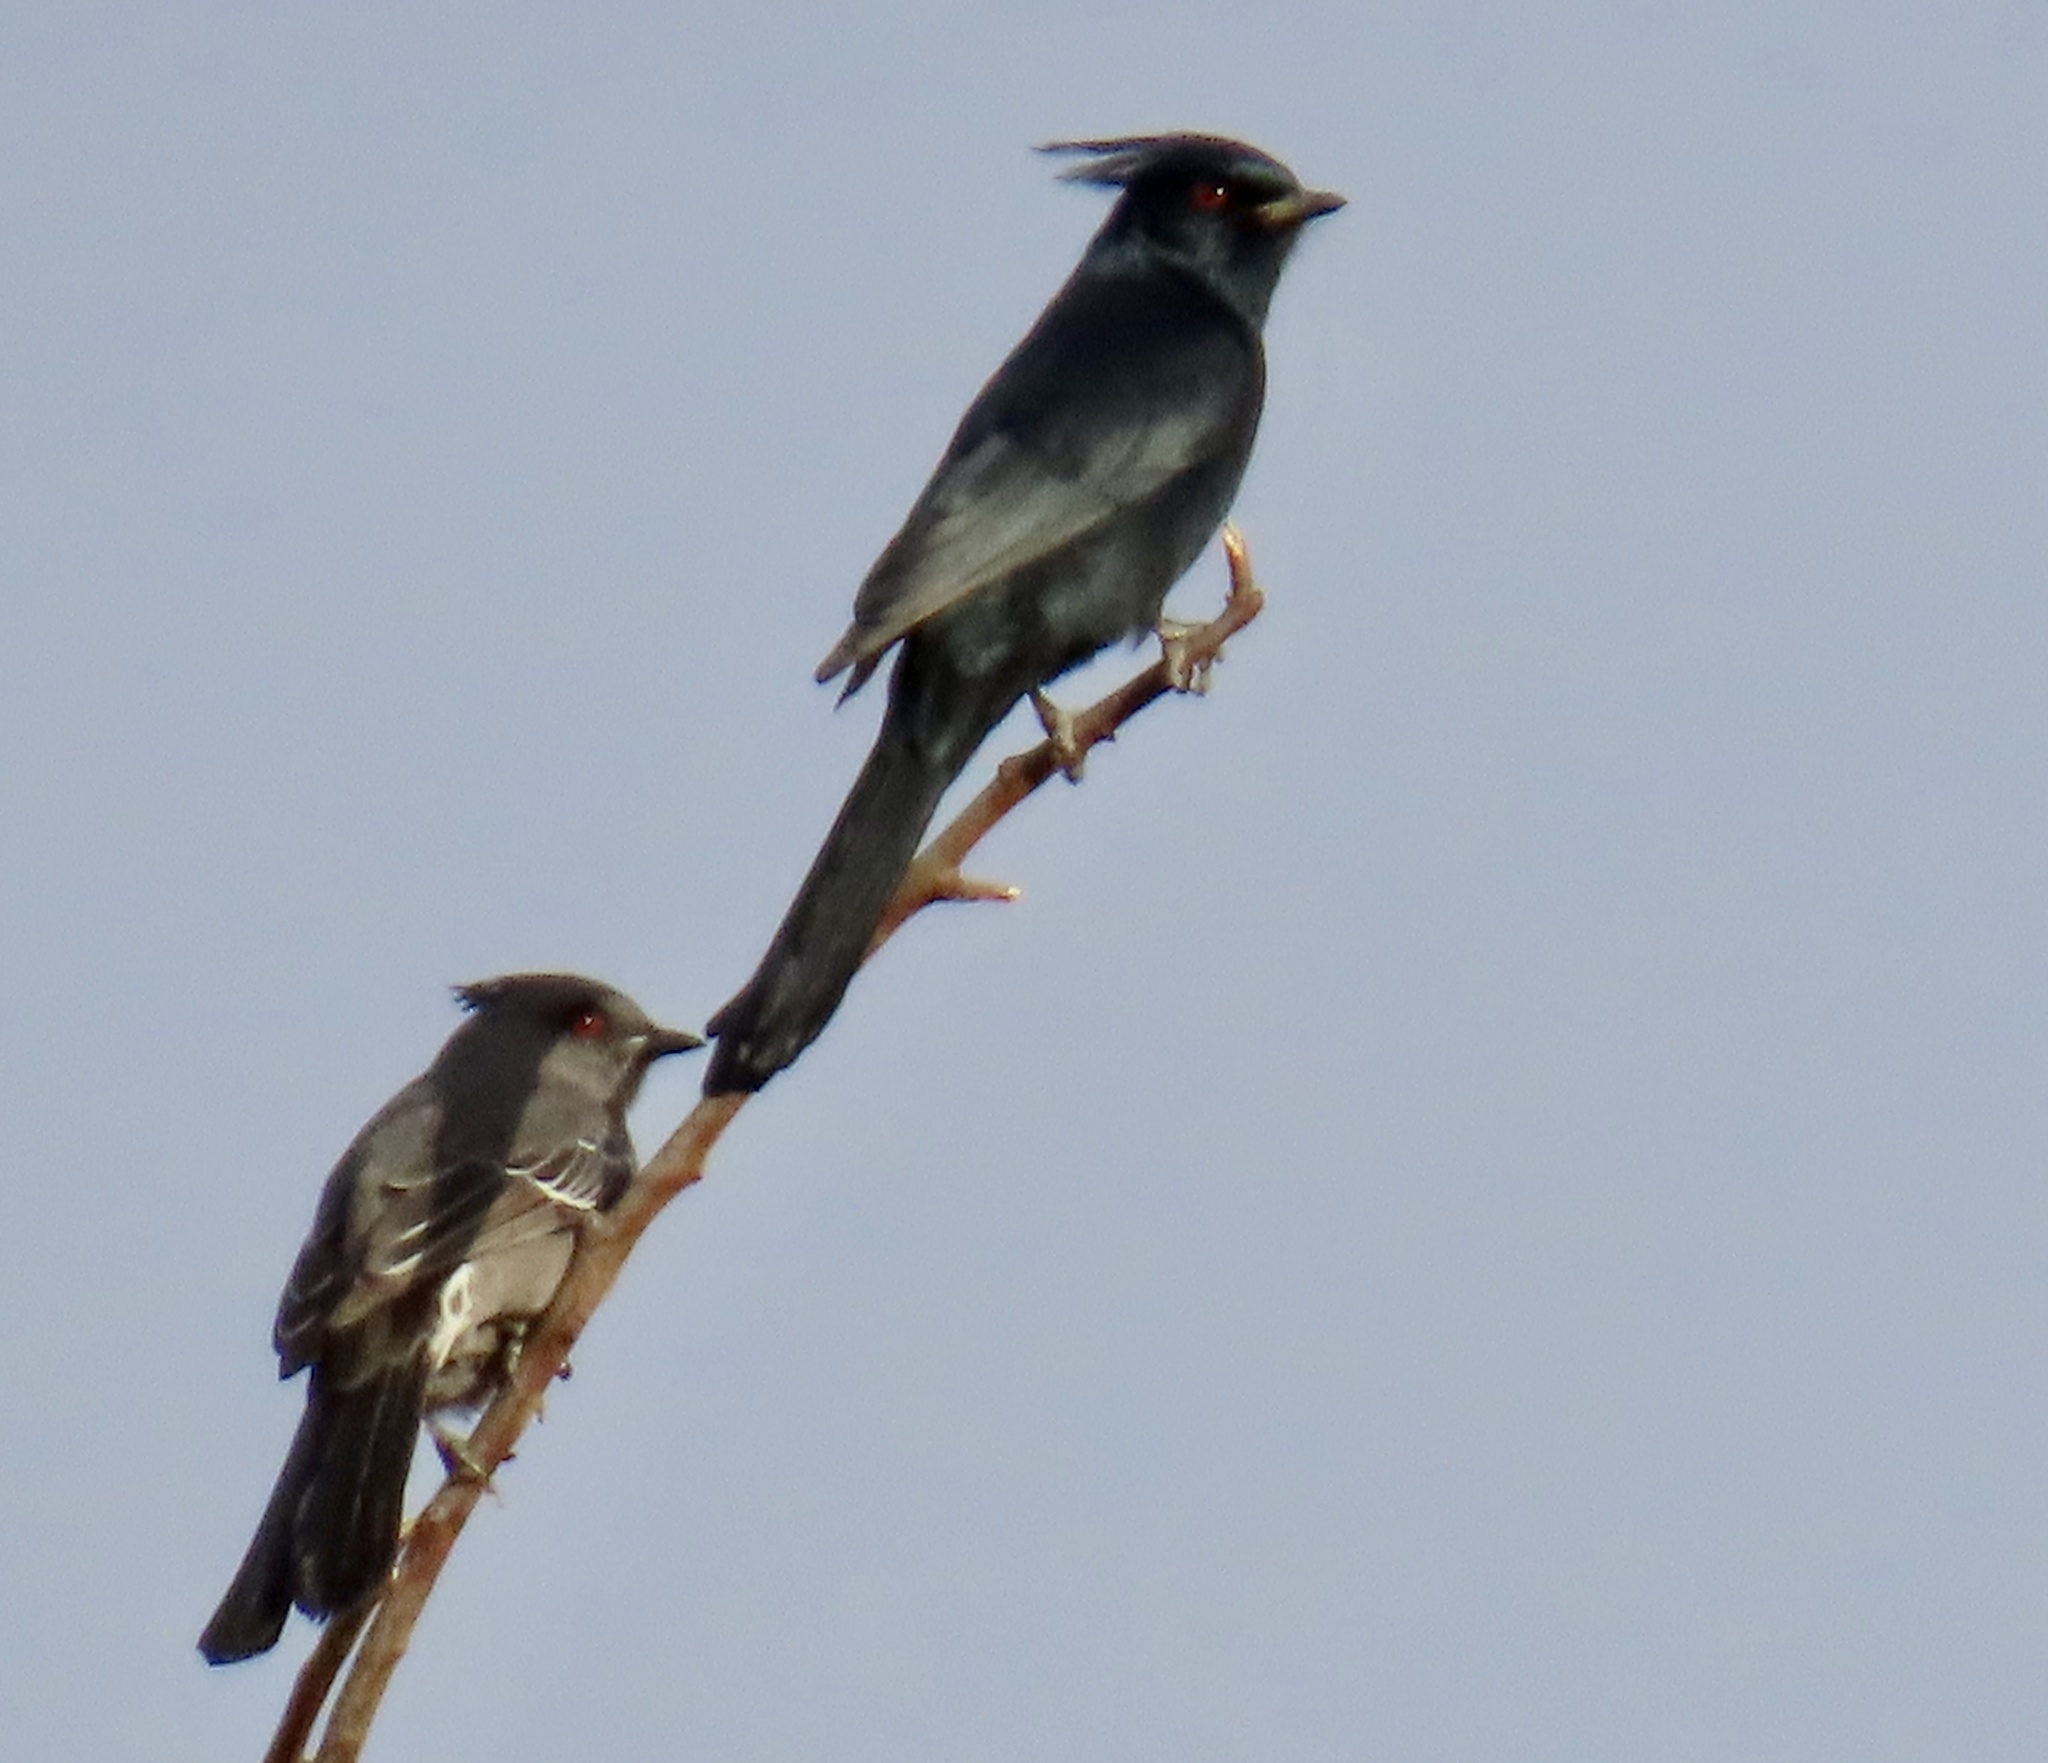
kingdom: Animalia
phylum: Chordata
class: Aves
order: Passeriformes
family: Ptilogonatidae
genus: Phainopepla
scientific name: Phainopepla nitens
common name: Phainopepla
